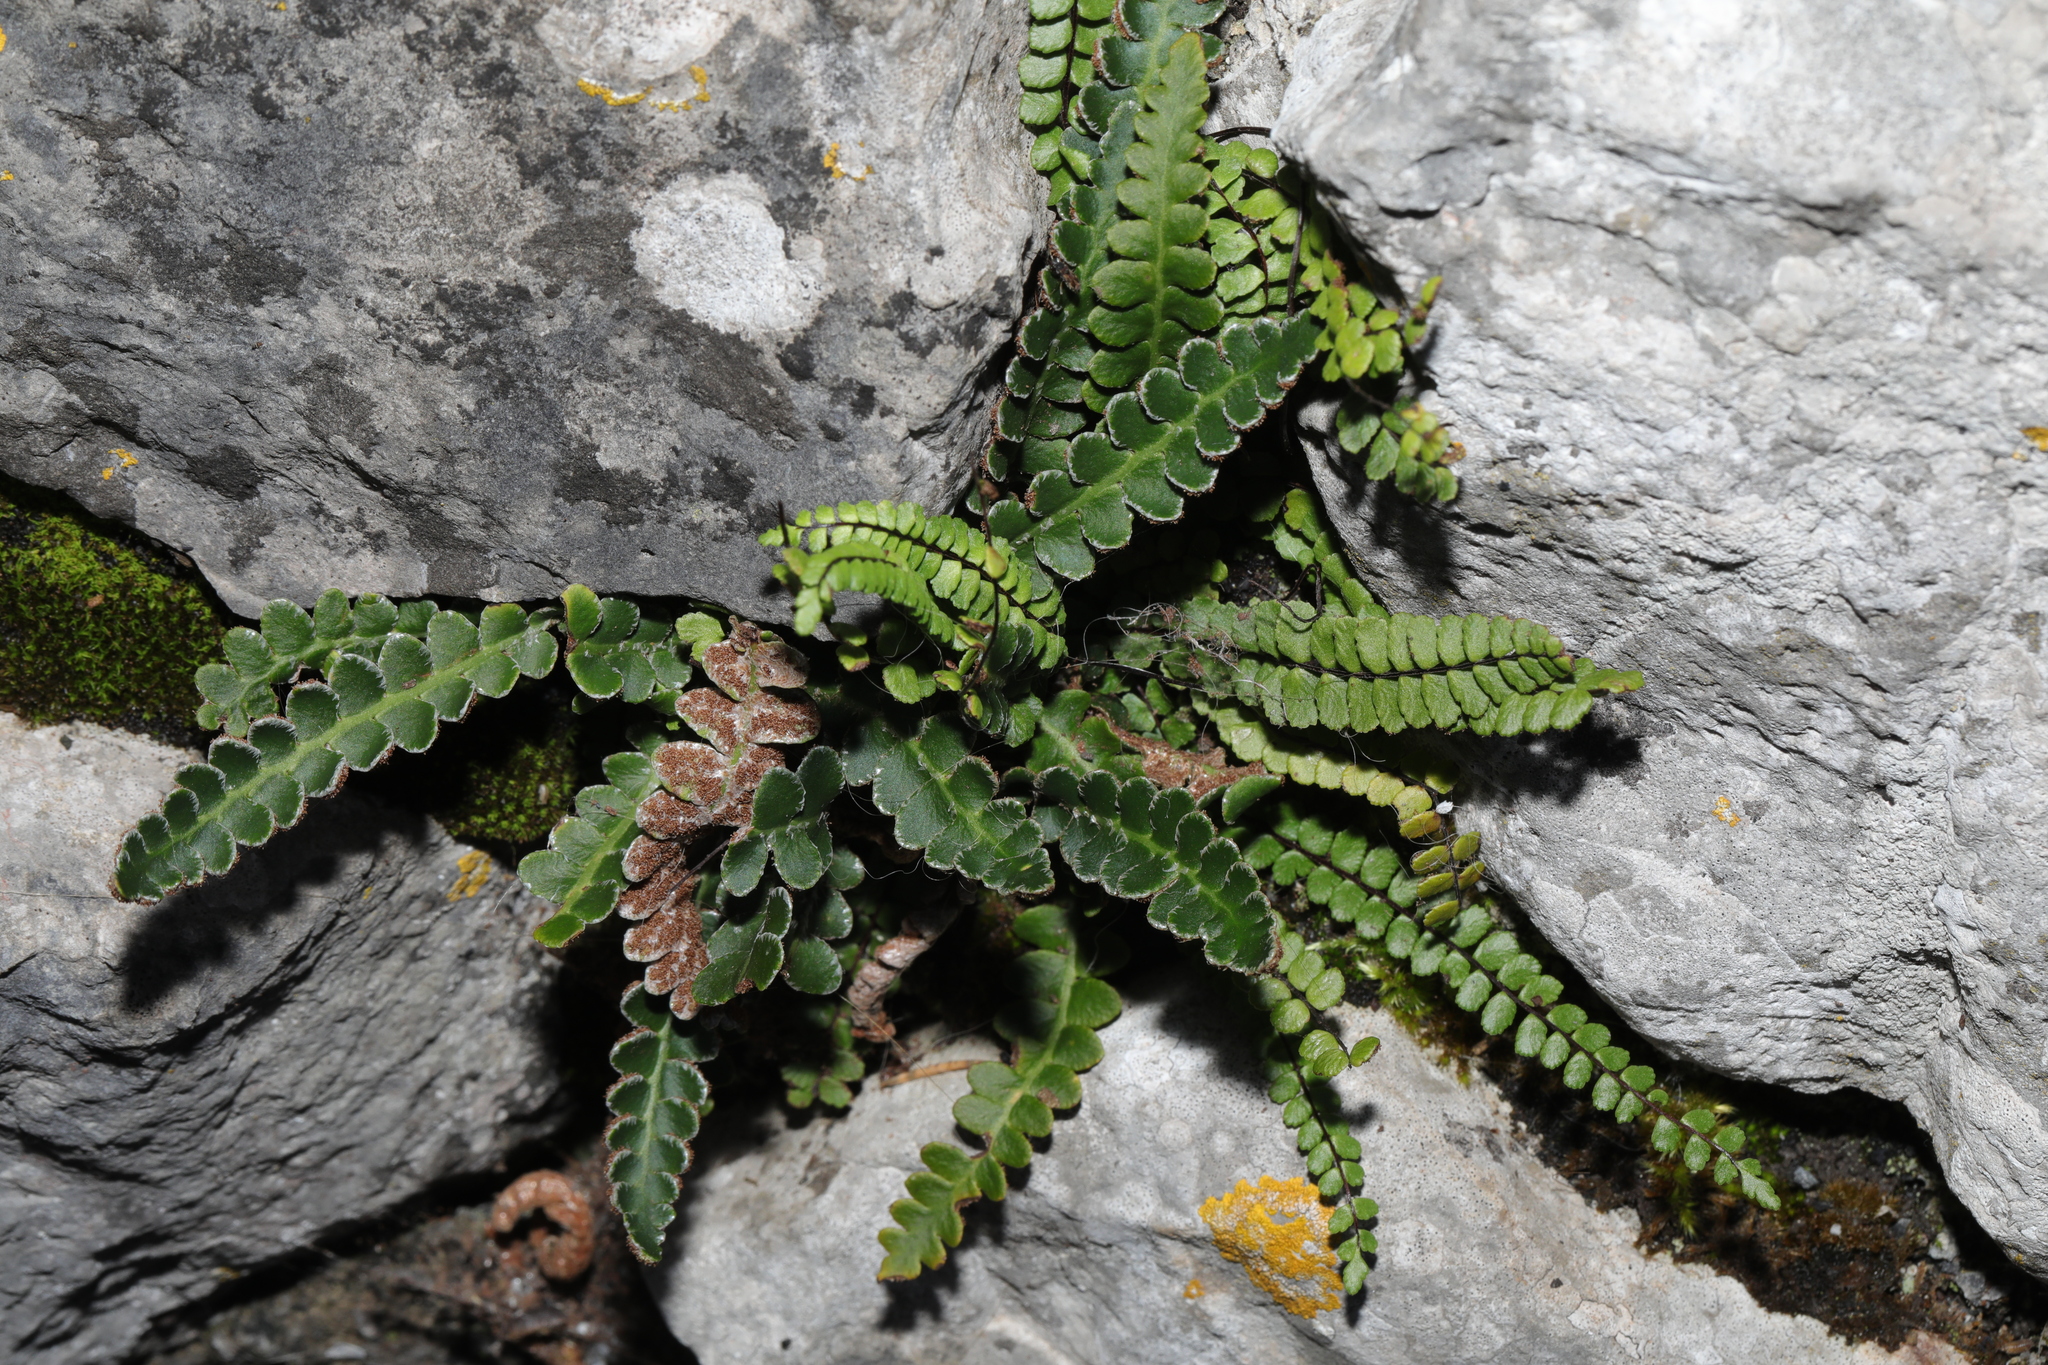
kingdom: Plantae
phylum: Tracheophyta
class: Polypodiopsida
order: Polypodiales
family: Aspleniaceae
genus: Asplenium
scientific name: Asplenium ceterach
